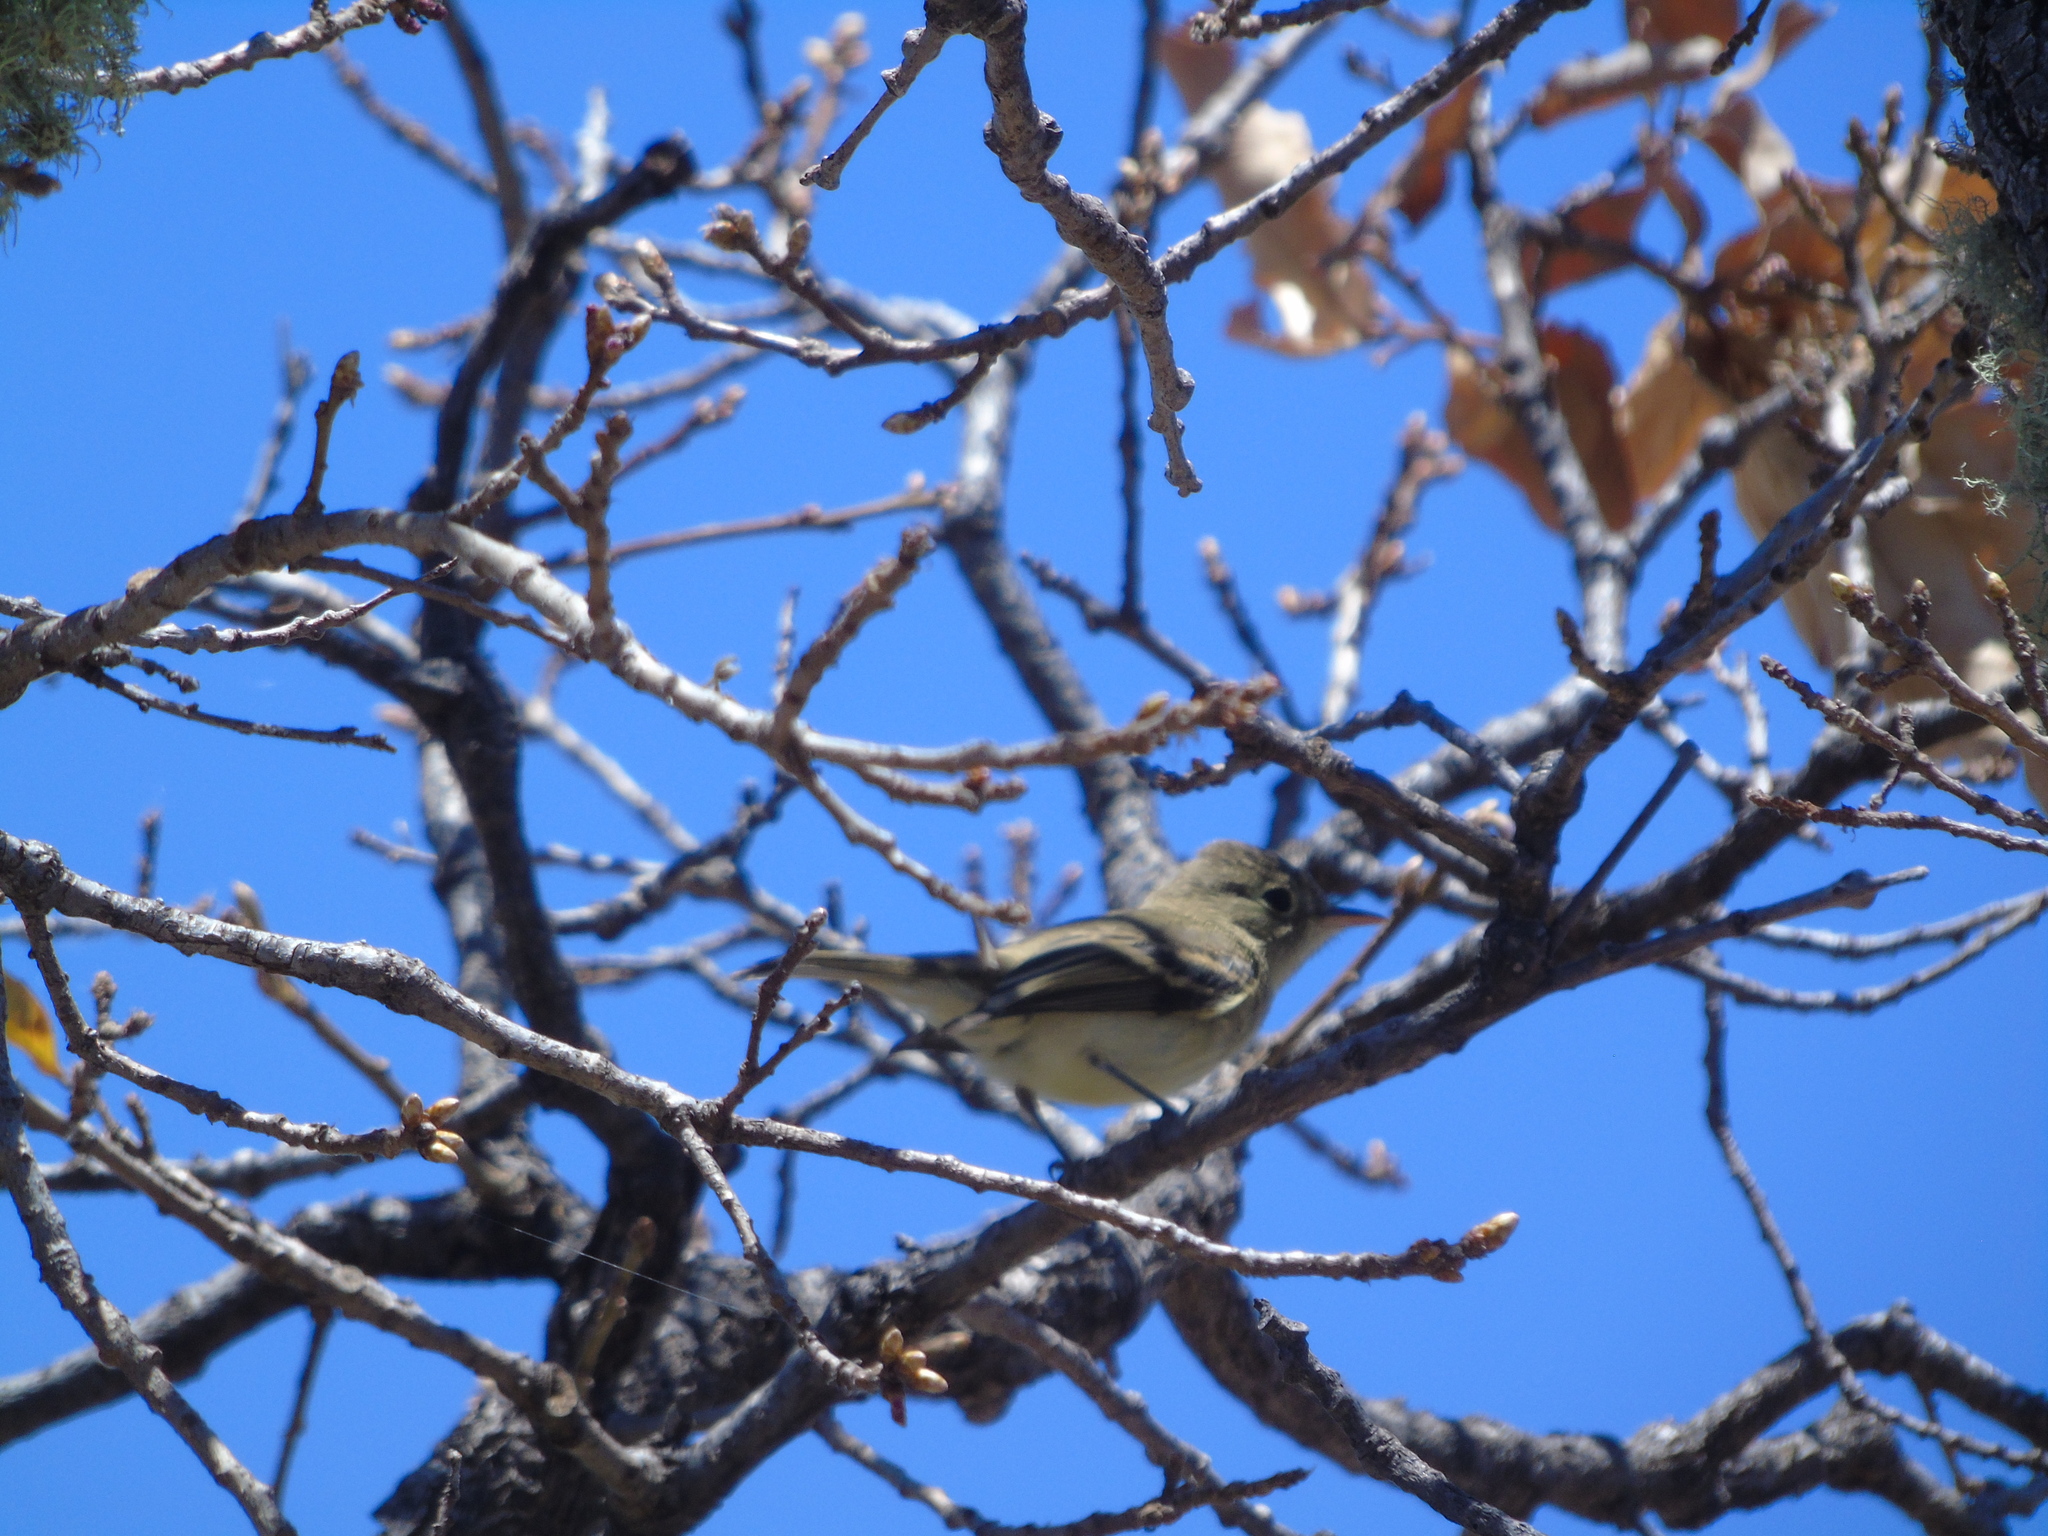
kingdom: Animalia
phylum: Chordata
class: Aves
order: Passeriformes
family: Tyrannidae
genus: Empidonax
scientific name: Empidonax difficilis
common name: Pacific-slope flycatcher
